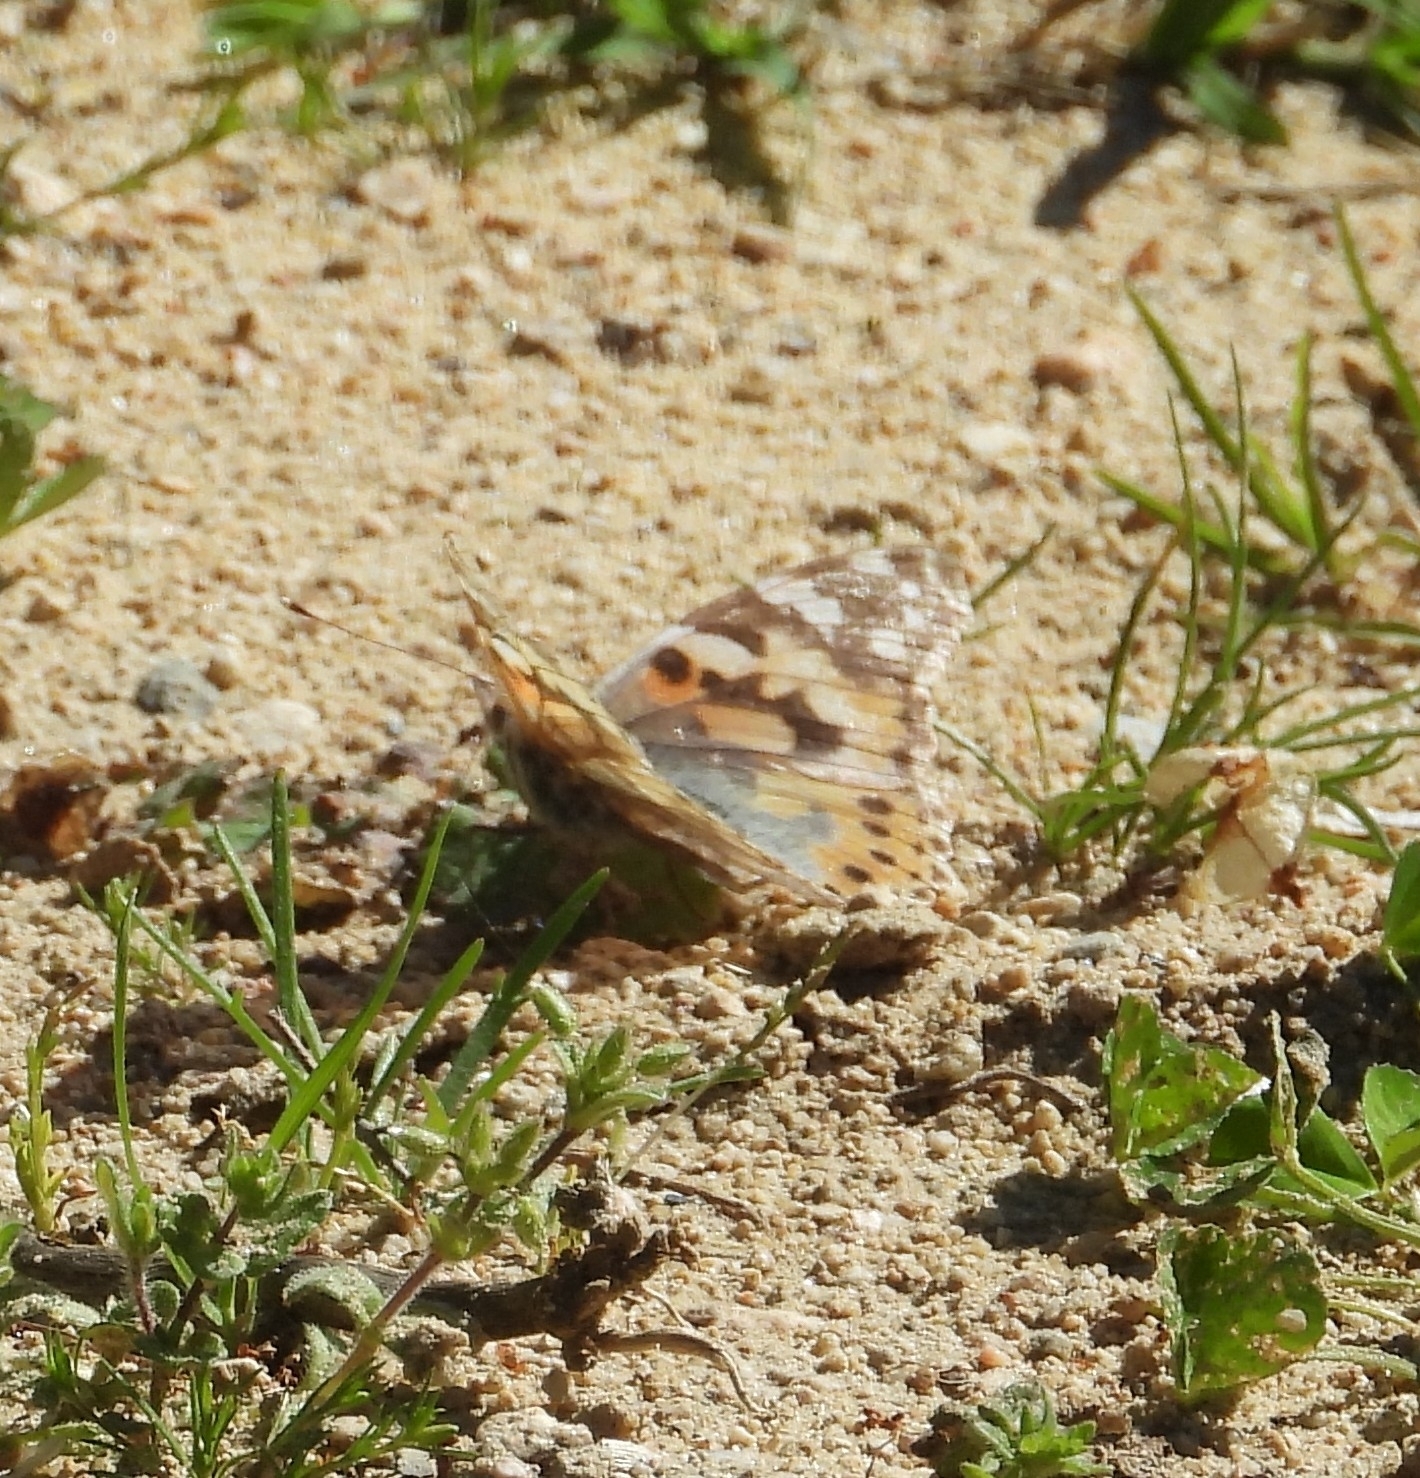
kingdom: Animalia
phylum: Arthropoda
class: Insecta
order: Lepidoptera
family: Nymphalidae
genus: Vanessa
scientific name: Vanessa cardui
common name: Painted lady
